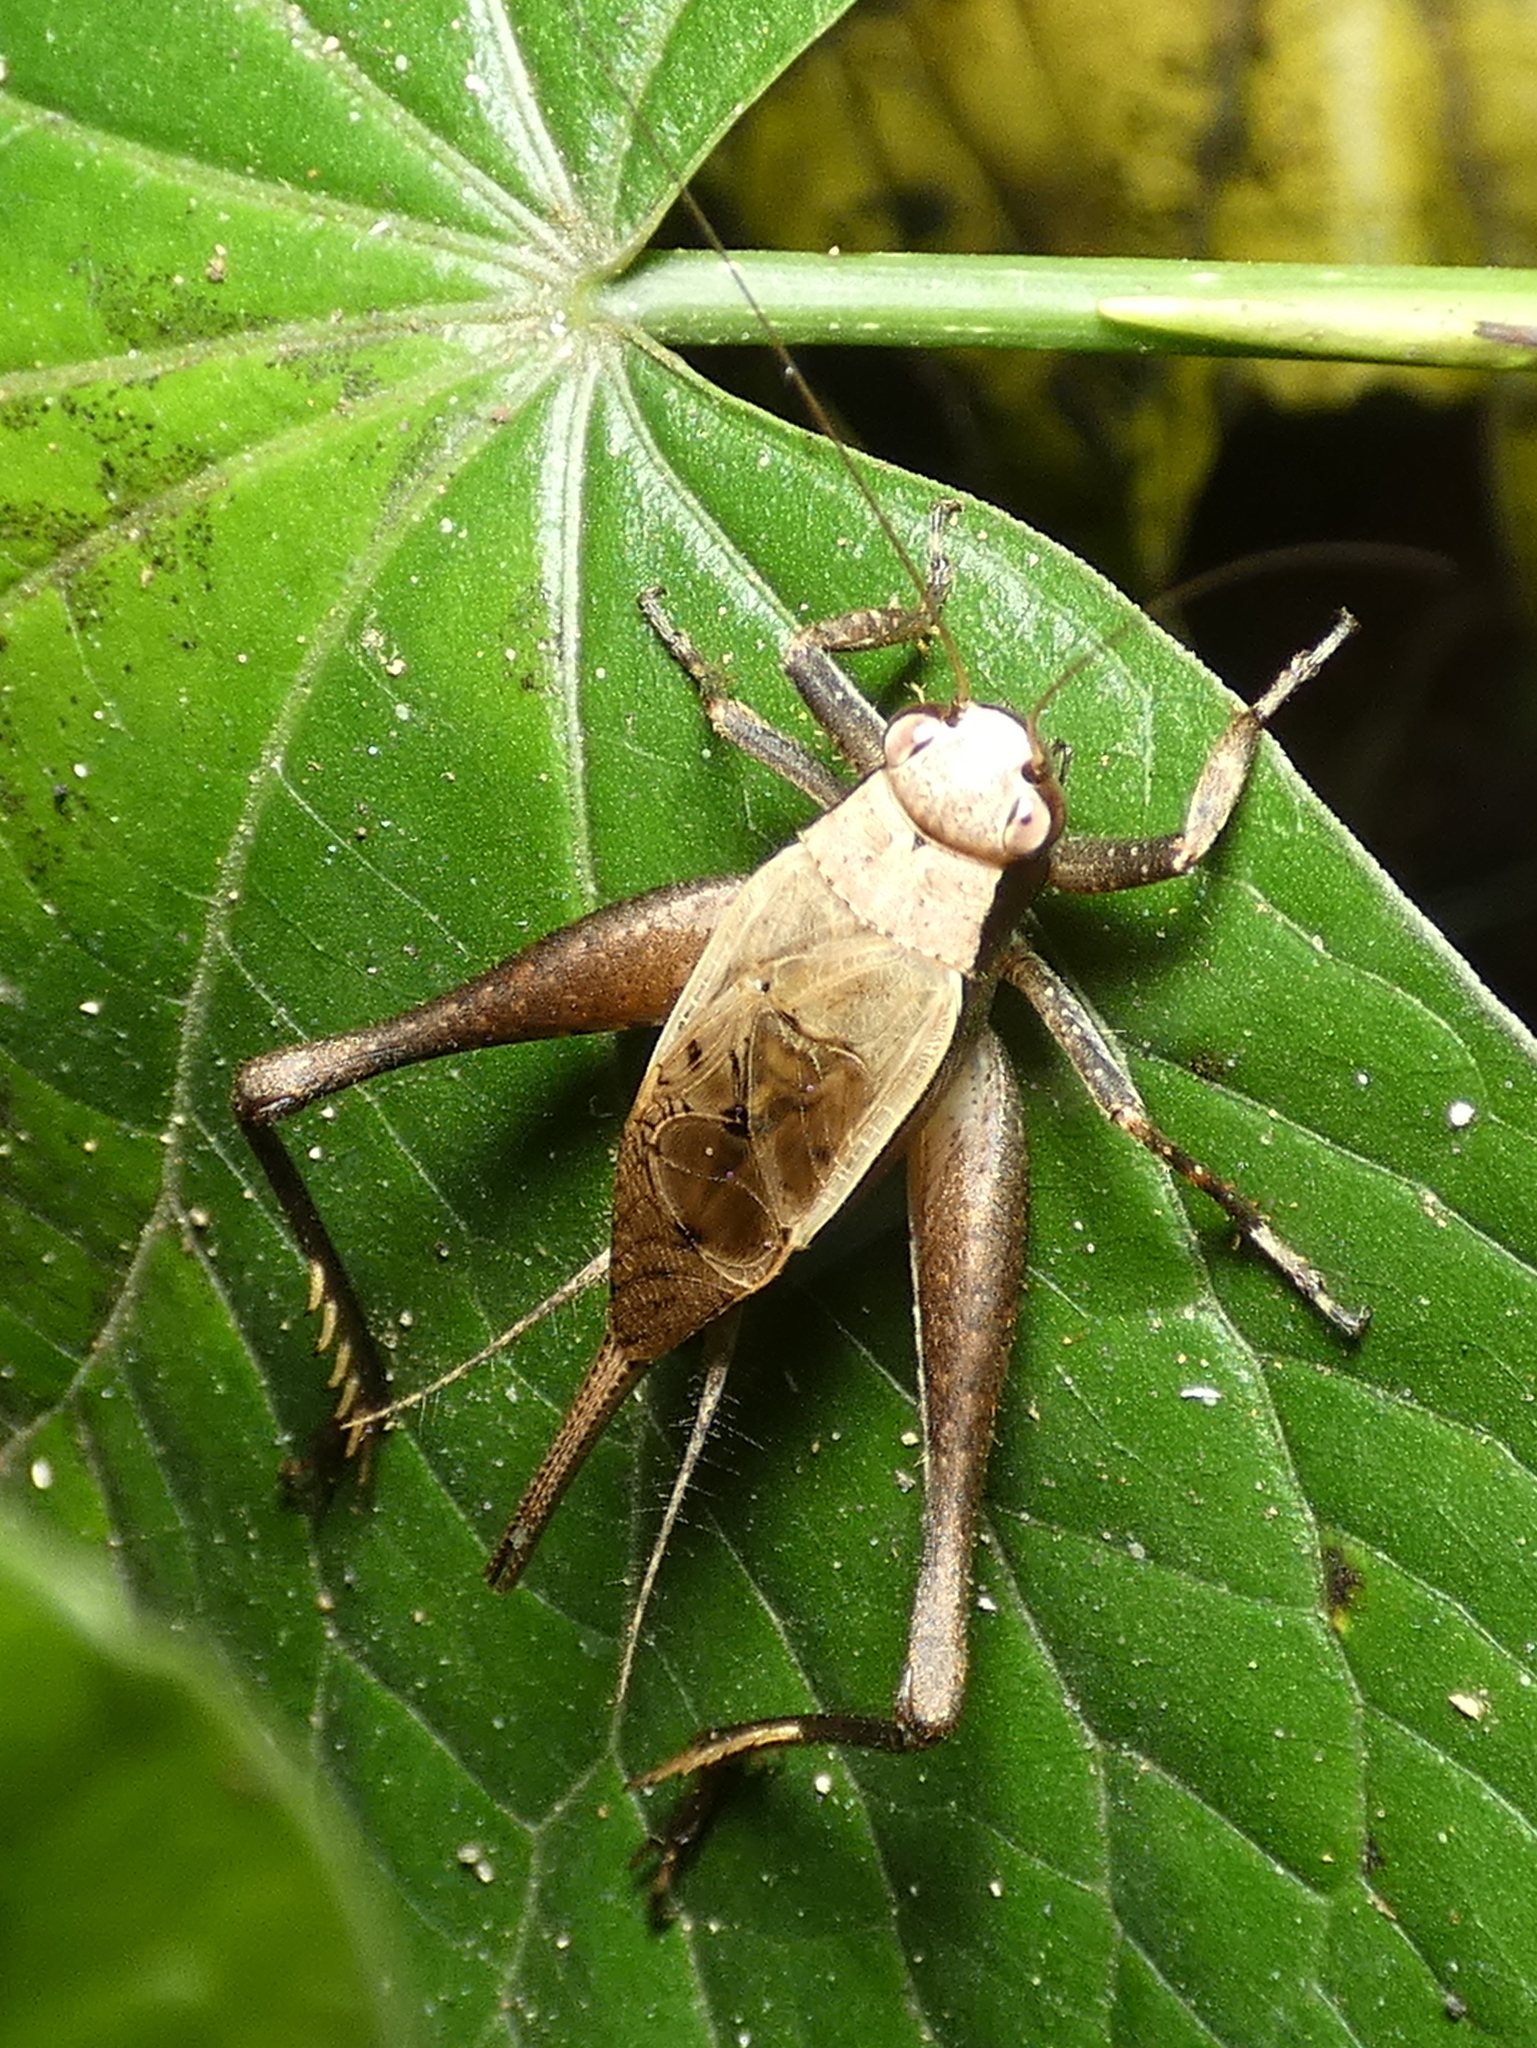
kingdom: Animalia
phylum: Arthropoda
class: Insecta
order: Orthoptera
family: Gryllidae
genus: Eneoptera
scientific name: Eneoptera surinamensis
